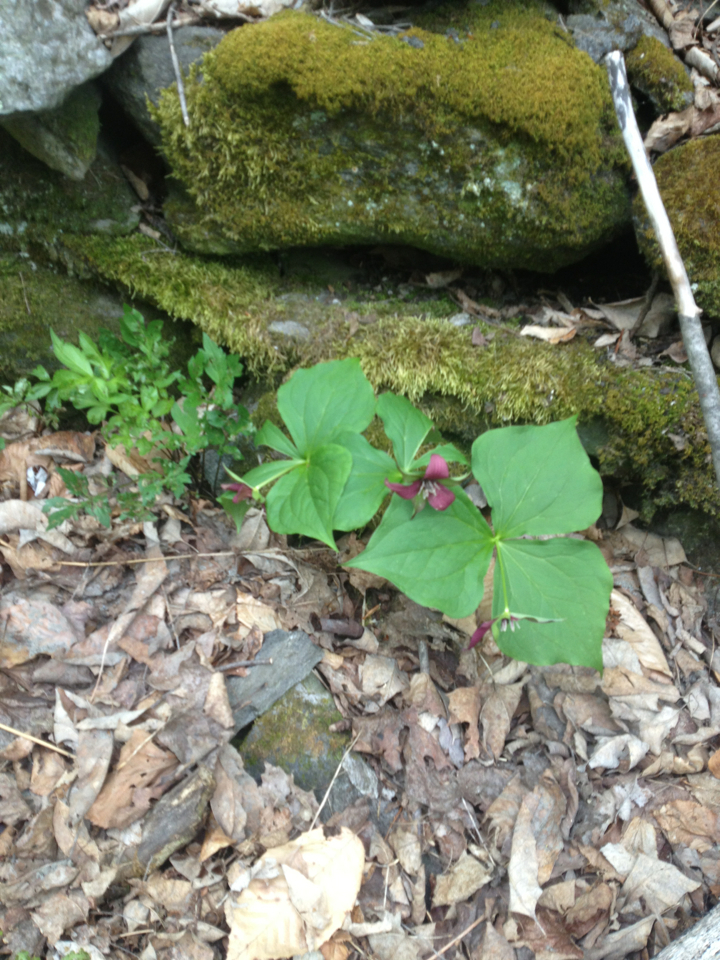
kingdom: Plantae
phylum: Tracheophyta
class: Liliopsida
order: Liliales
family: Melanthiaceae
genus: Trillium
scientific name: Trillium erectum
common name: Purple trillium
